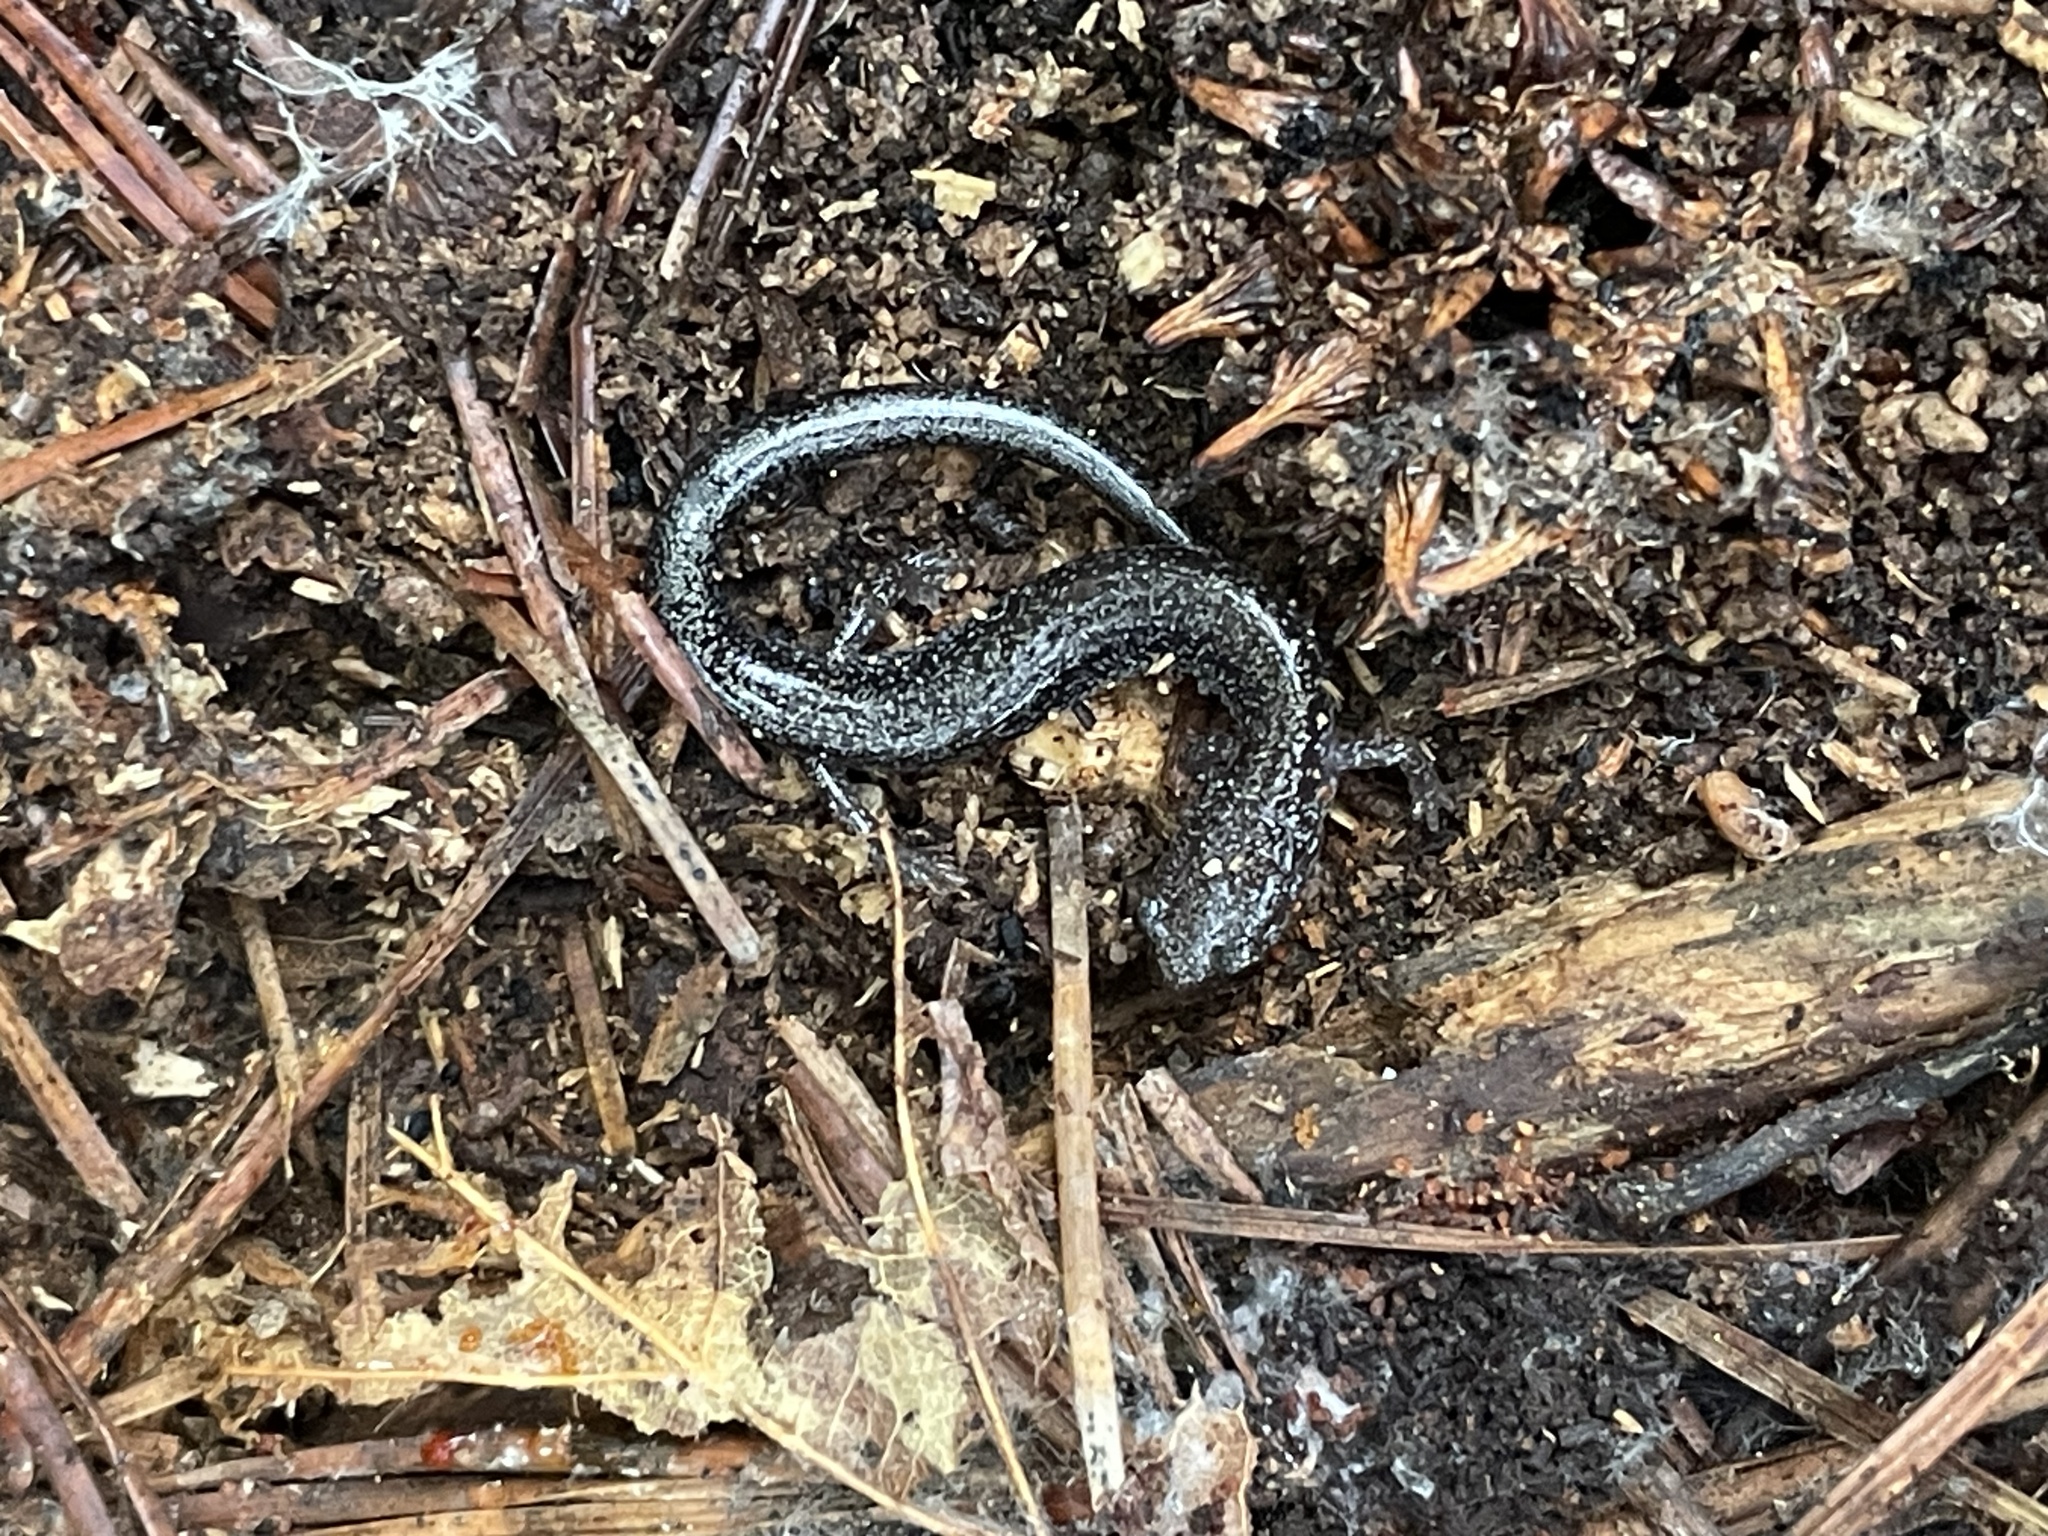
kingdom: Animalia
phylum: Chordata
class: Amphibia
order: Caudata
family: Plethodontidae
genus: Plethodon
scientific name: Plethodon cinereus
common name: Redback salamander
